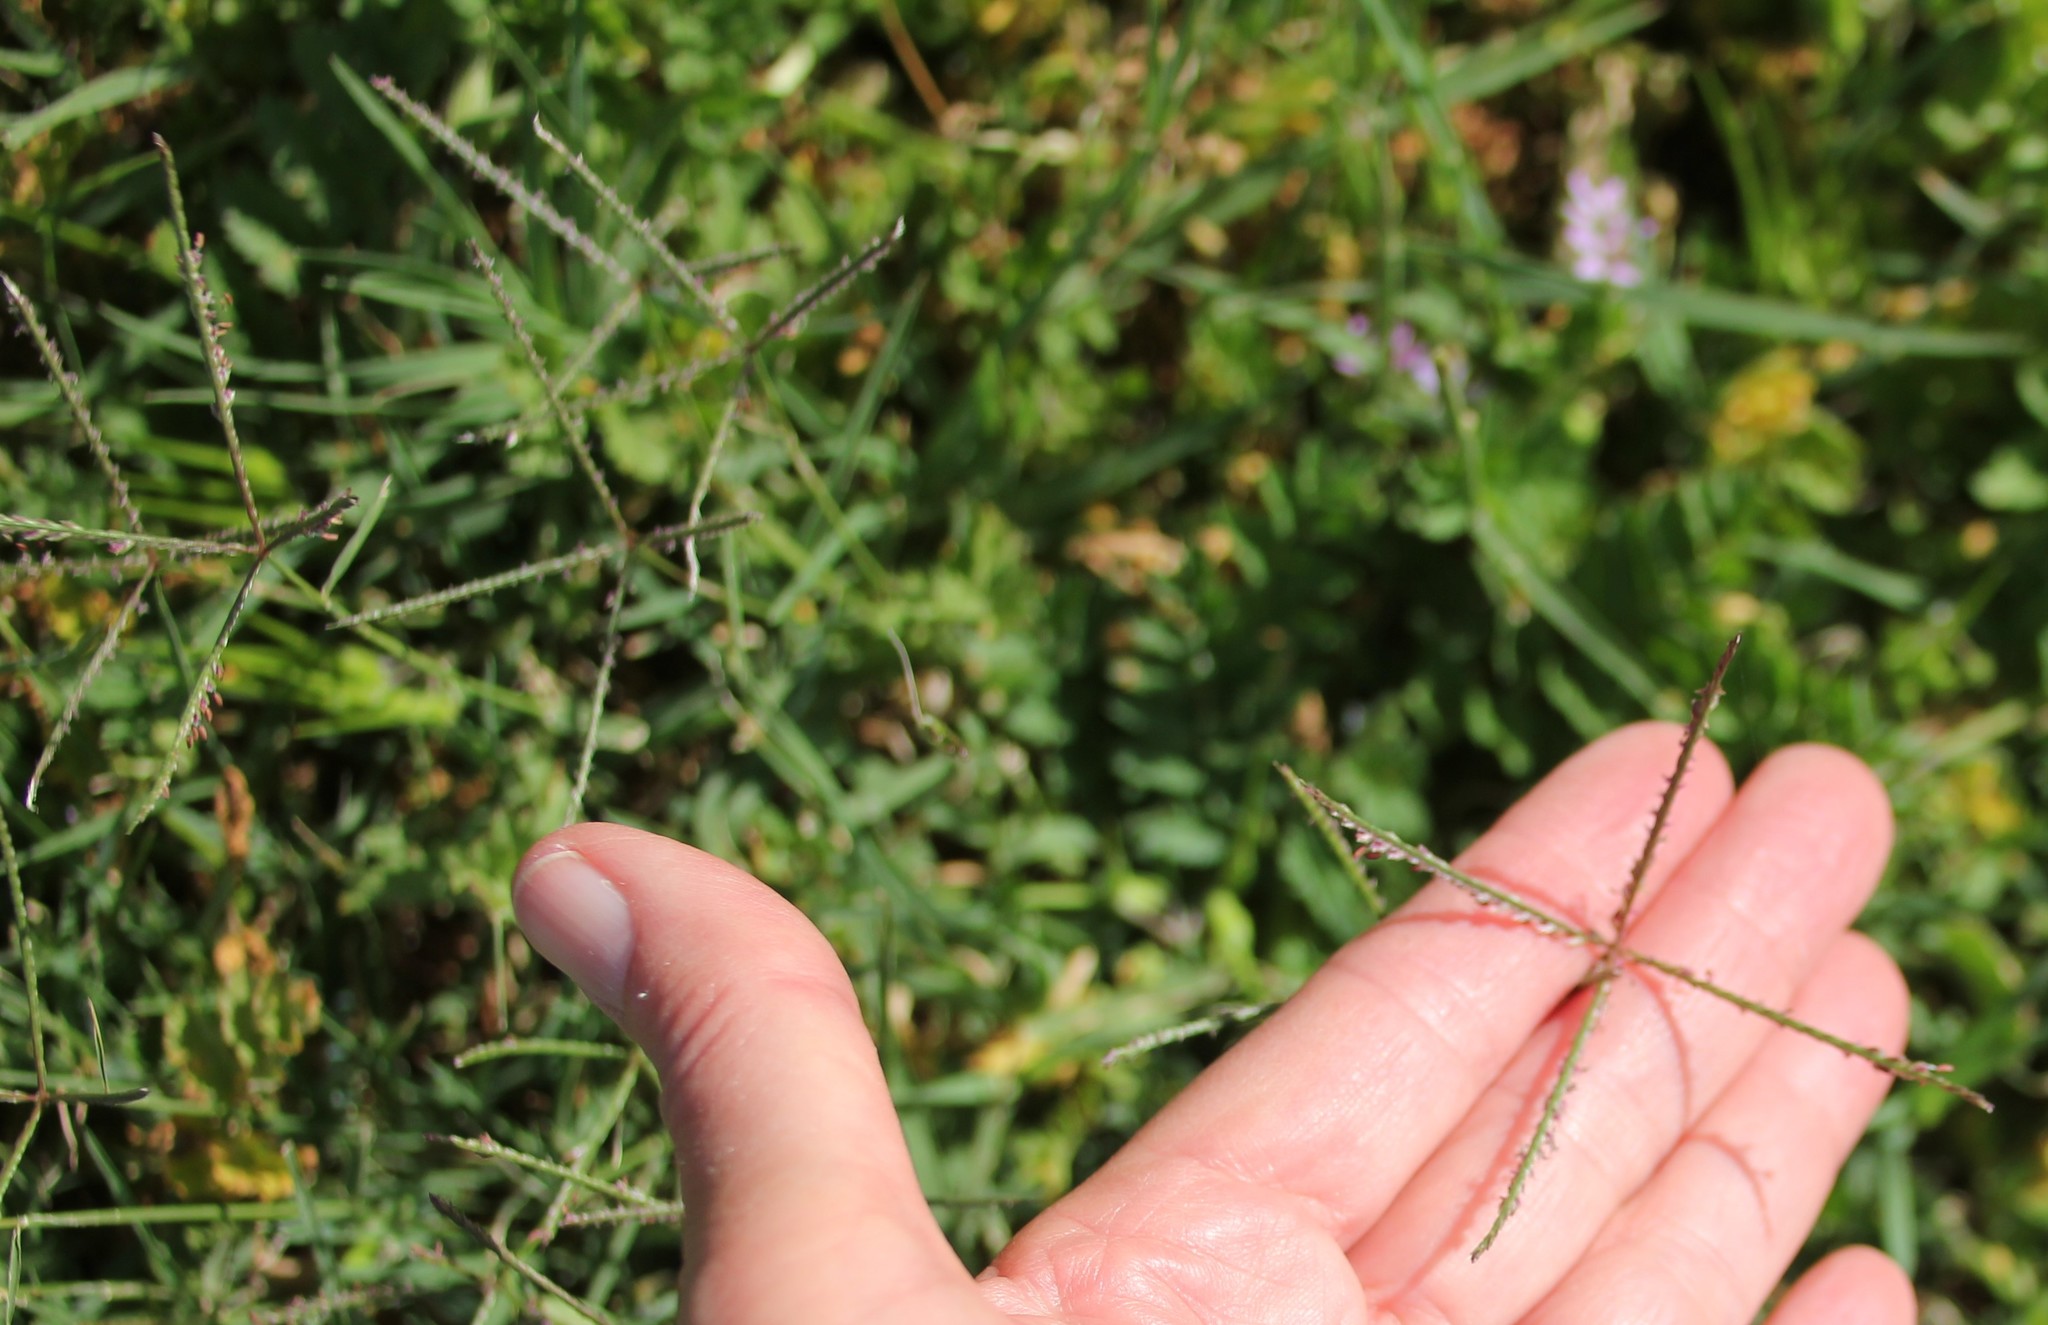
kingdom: Plantae
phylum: Tracheophyta
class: Liliopsida
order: Poales
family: Poaceae
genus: Cynodon
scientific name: Cynodon dactylon
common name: Bermuda grass
